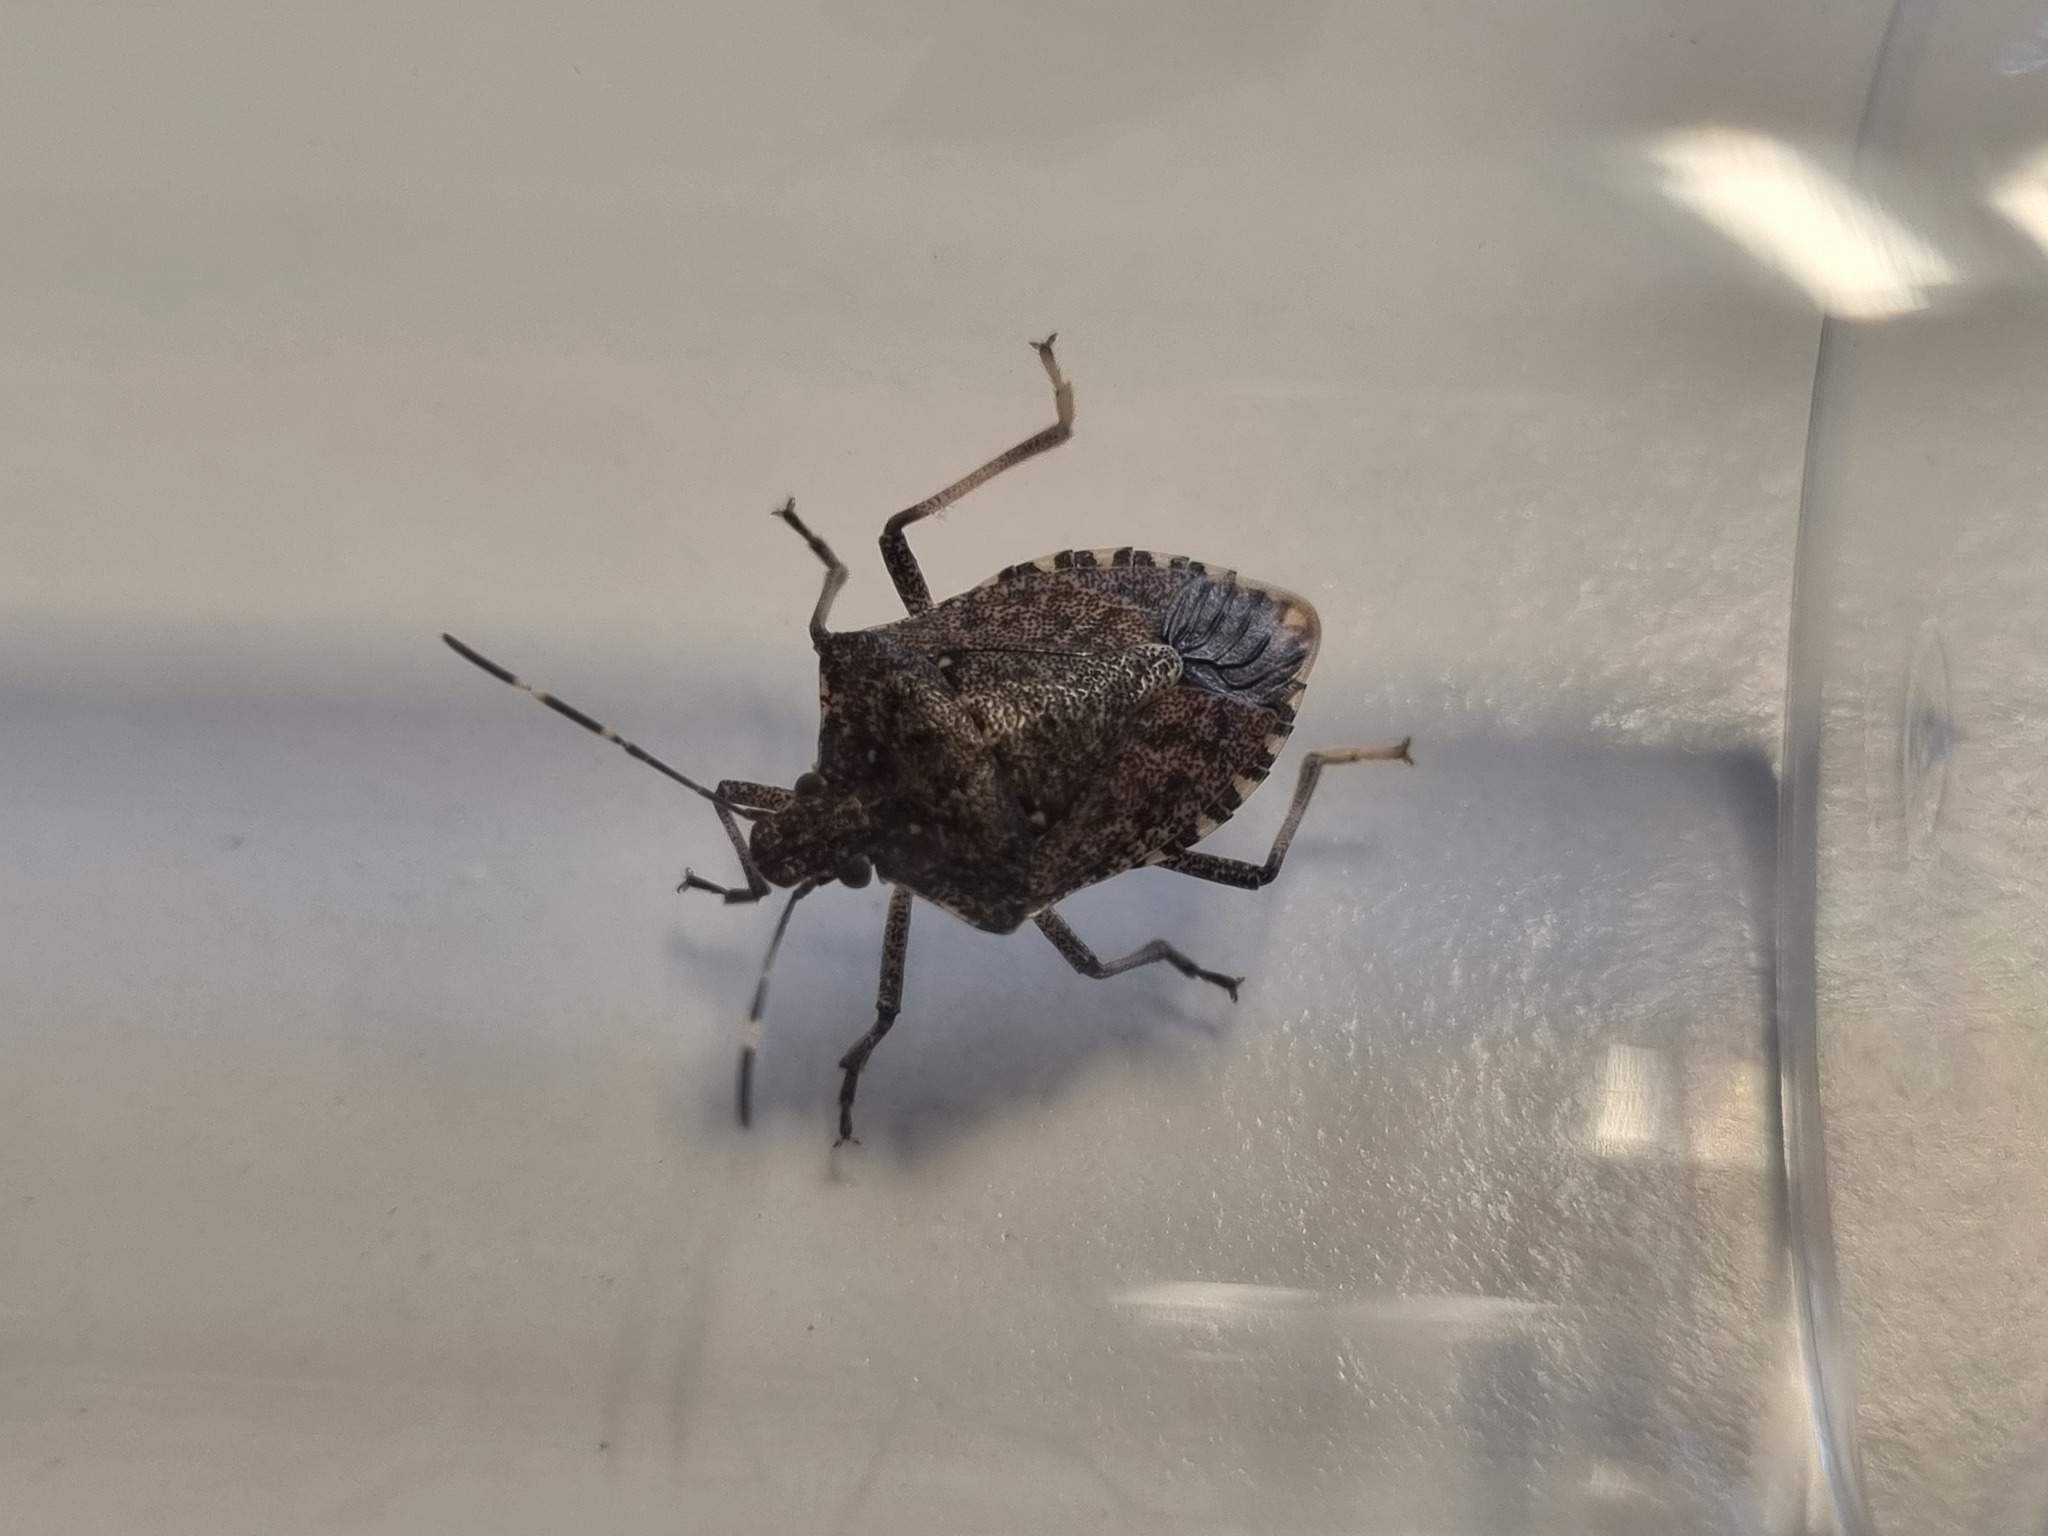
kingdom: Animalia
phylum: Arthropoda
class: Insecta
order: Hemiptera
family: Pentatomidae
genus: Halyomorpha
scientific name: Halyomorpha halys
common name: Brown marmorated stink bug
